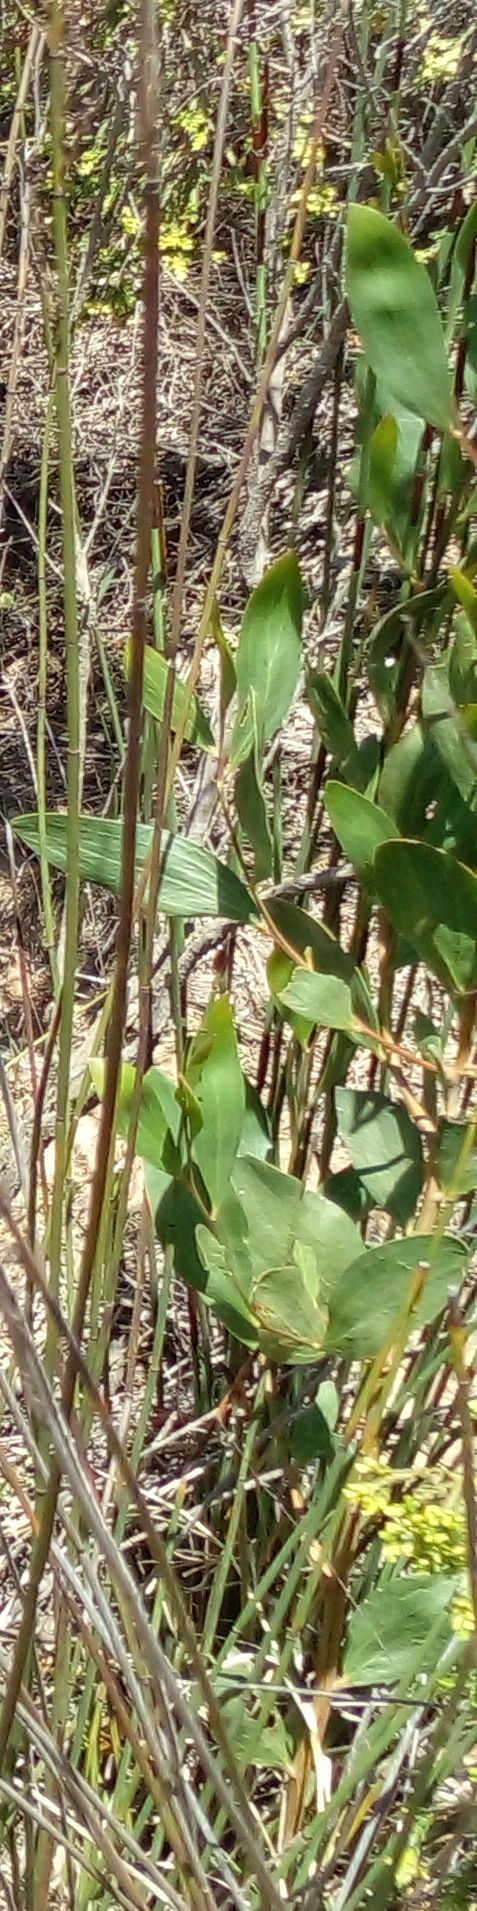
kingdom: Plantae
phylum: Tracheophyta
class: Magnoliopsida
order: Fabales
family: Fabaceae
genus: Acacia
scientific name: Acacia cyclops
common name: Coastal wattle
